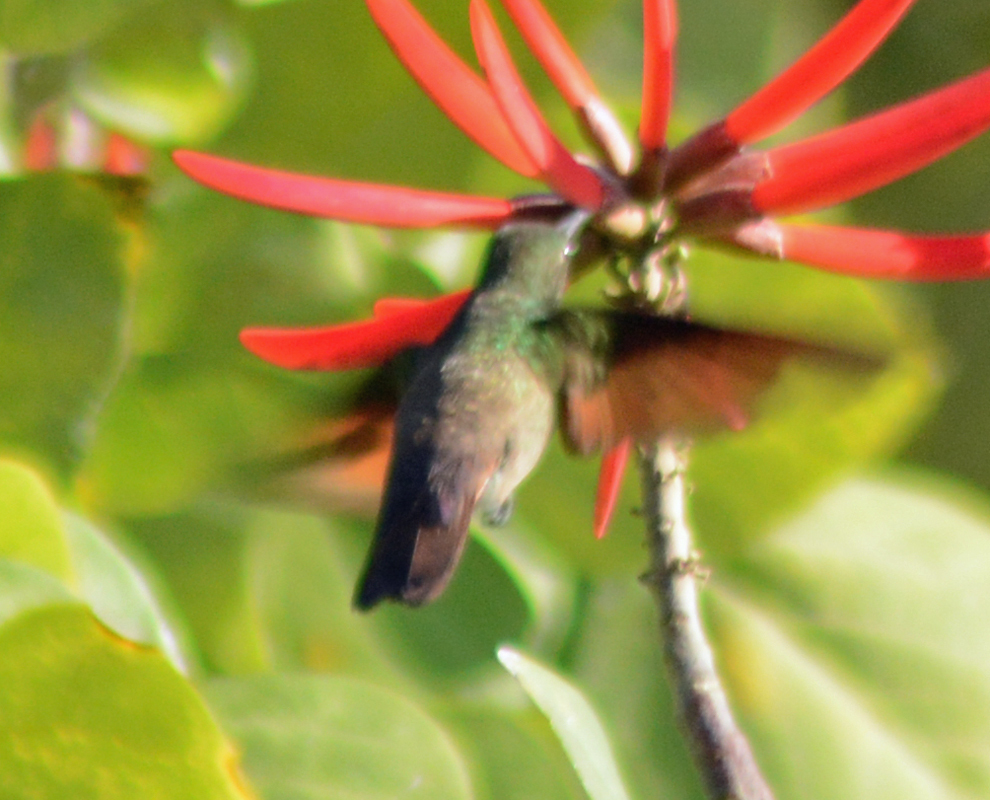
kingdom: Animalia
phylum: Chordata
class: Aves
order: Apodiformes
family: Trochilidae
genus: Saucerottia
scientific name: Saucerottia beryllina
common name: Berylline hummingbird
